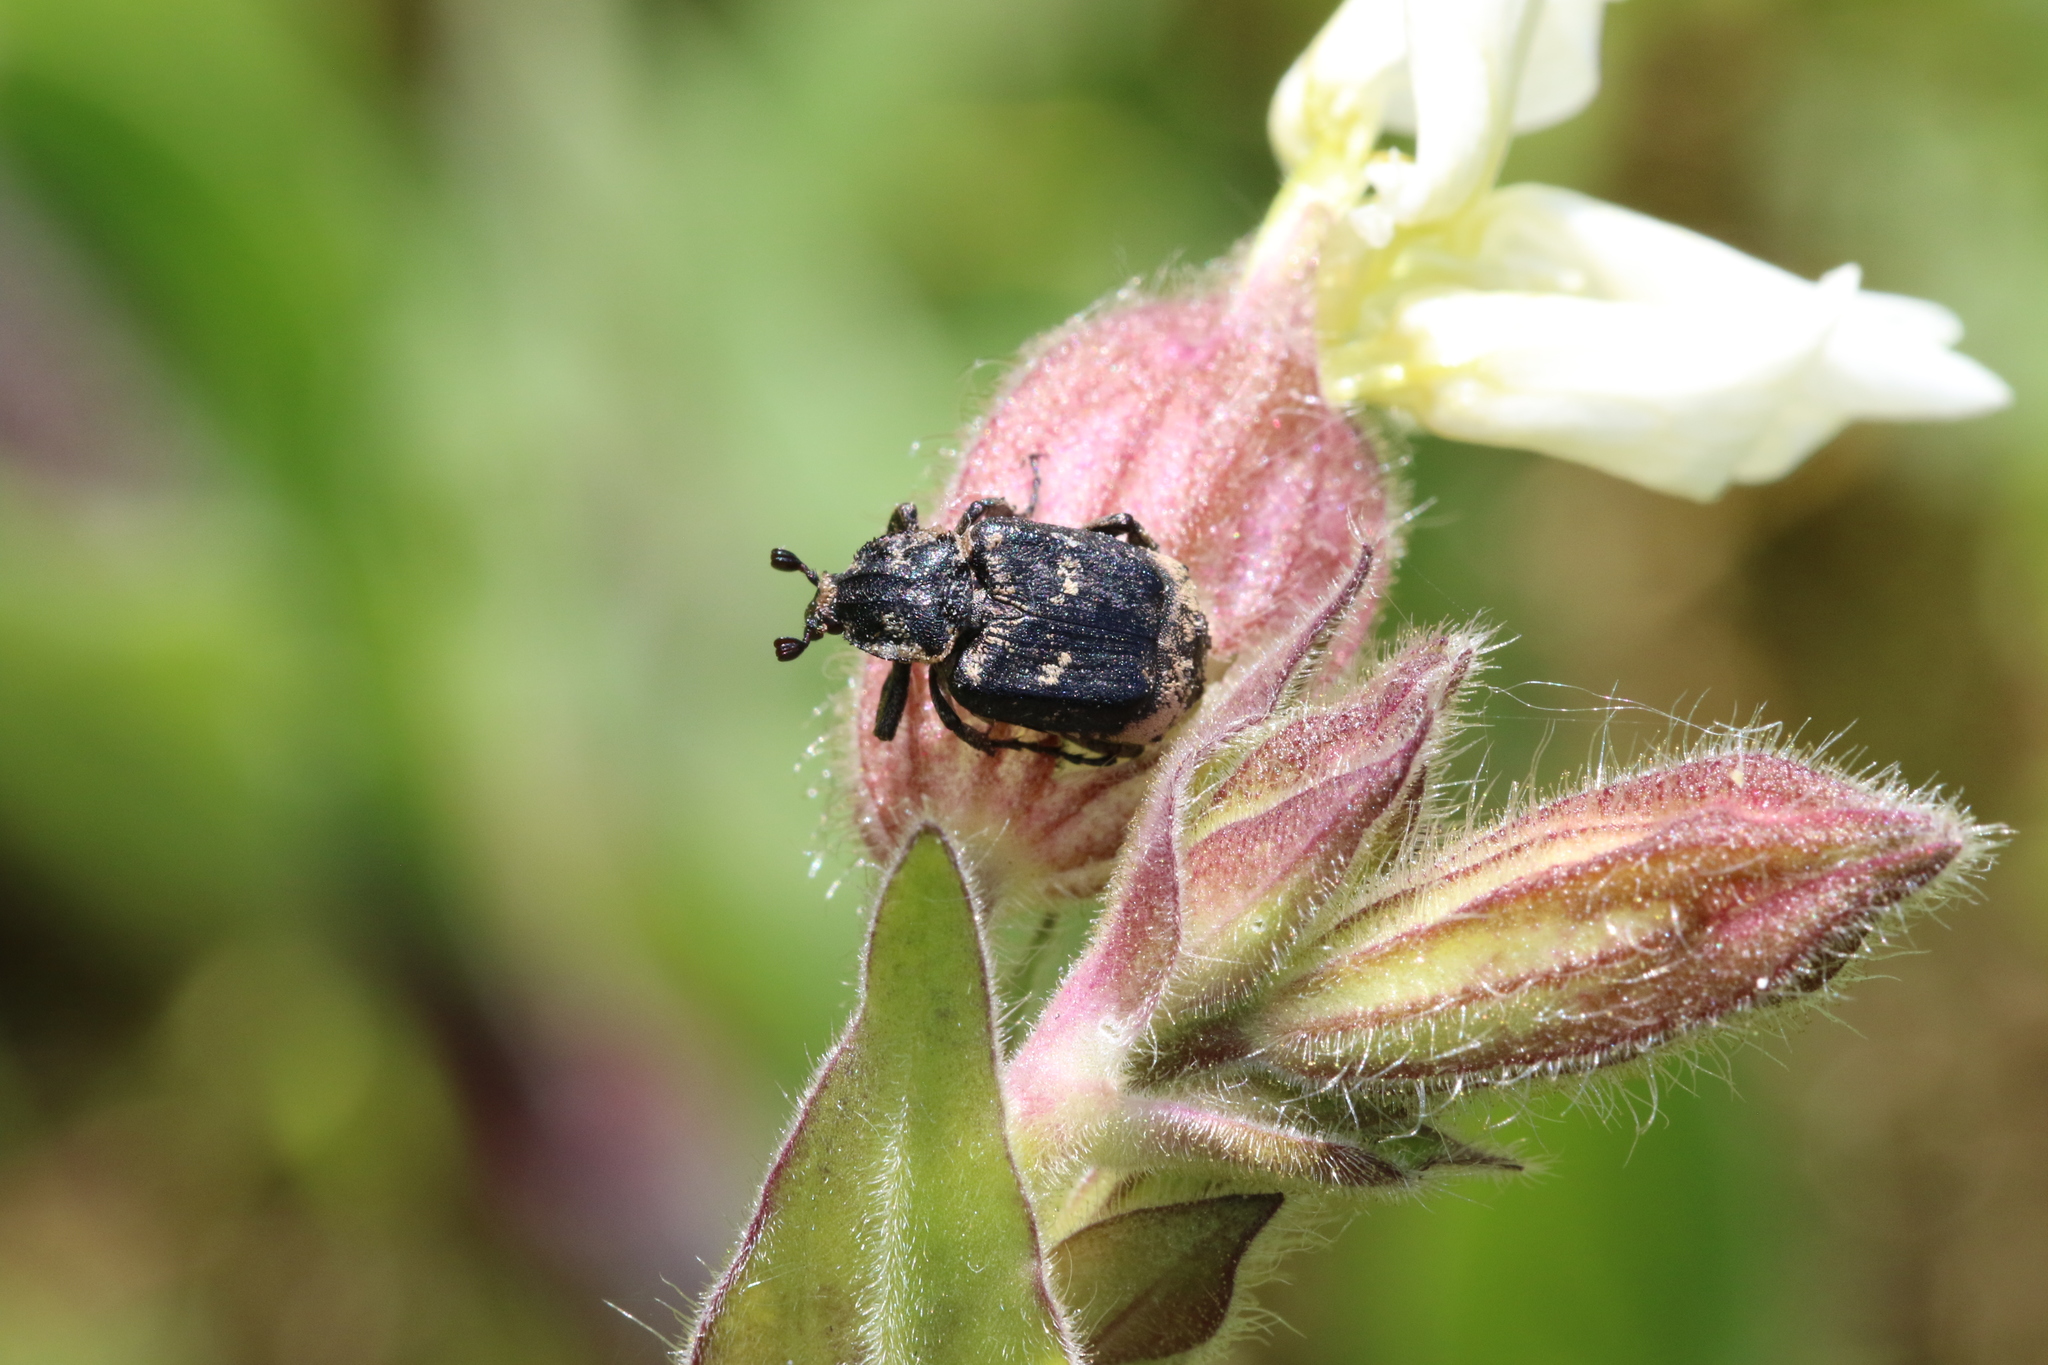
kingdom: Animalia
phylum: Arthropoda
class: Insecta
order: Coleoptera
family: Scarabaeidae
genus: Valgus
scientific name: Valgus hemipterus
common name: Bug flower chafer
